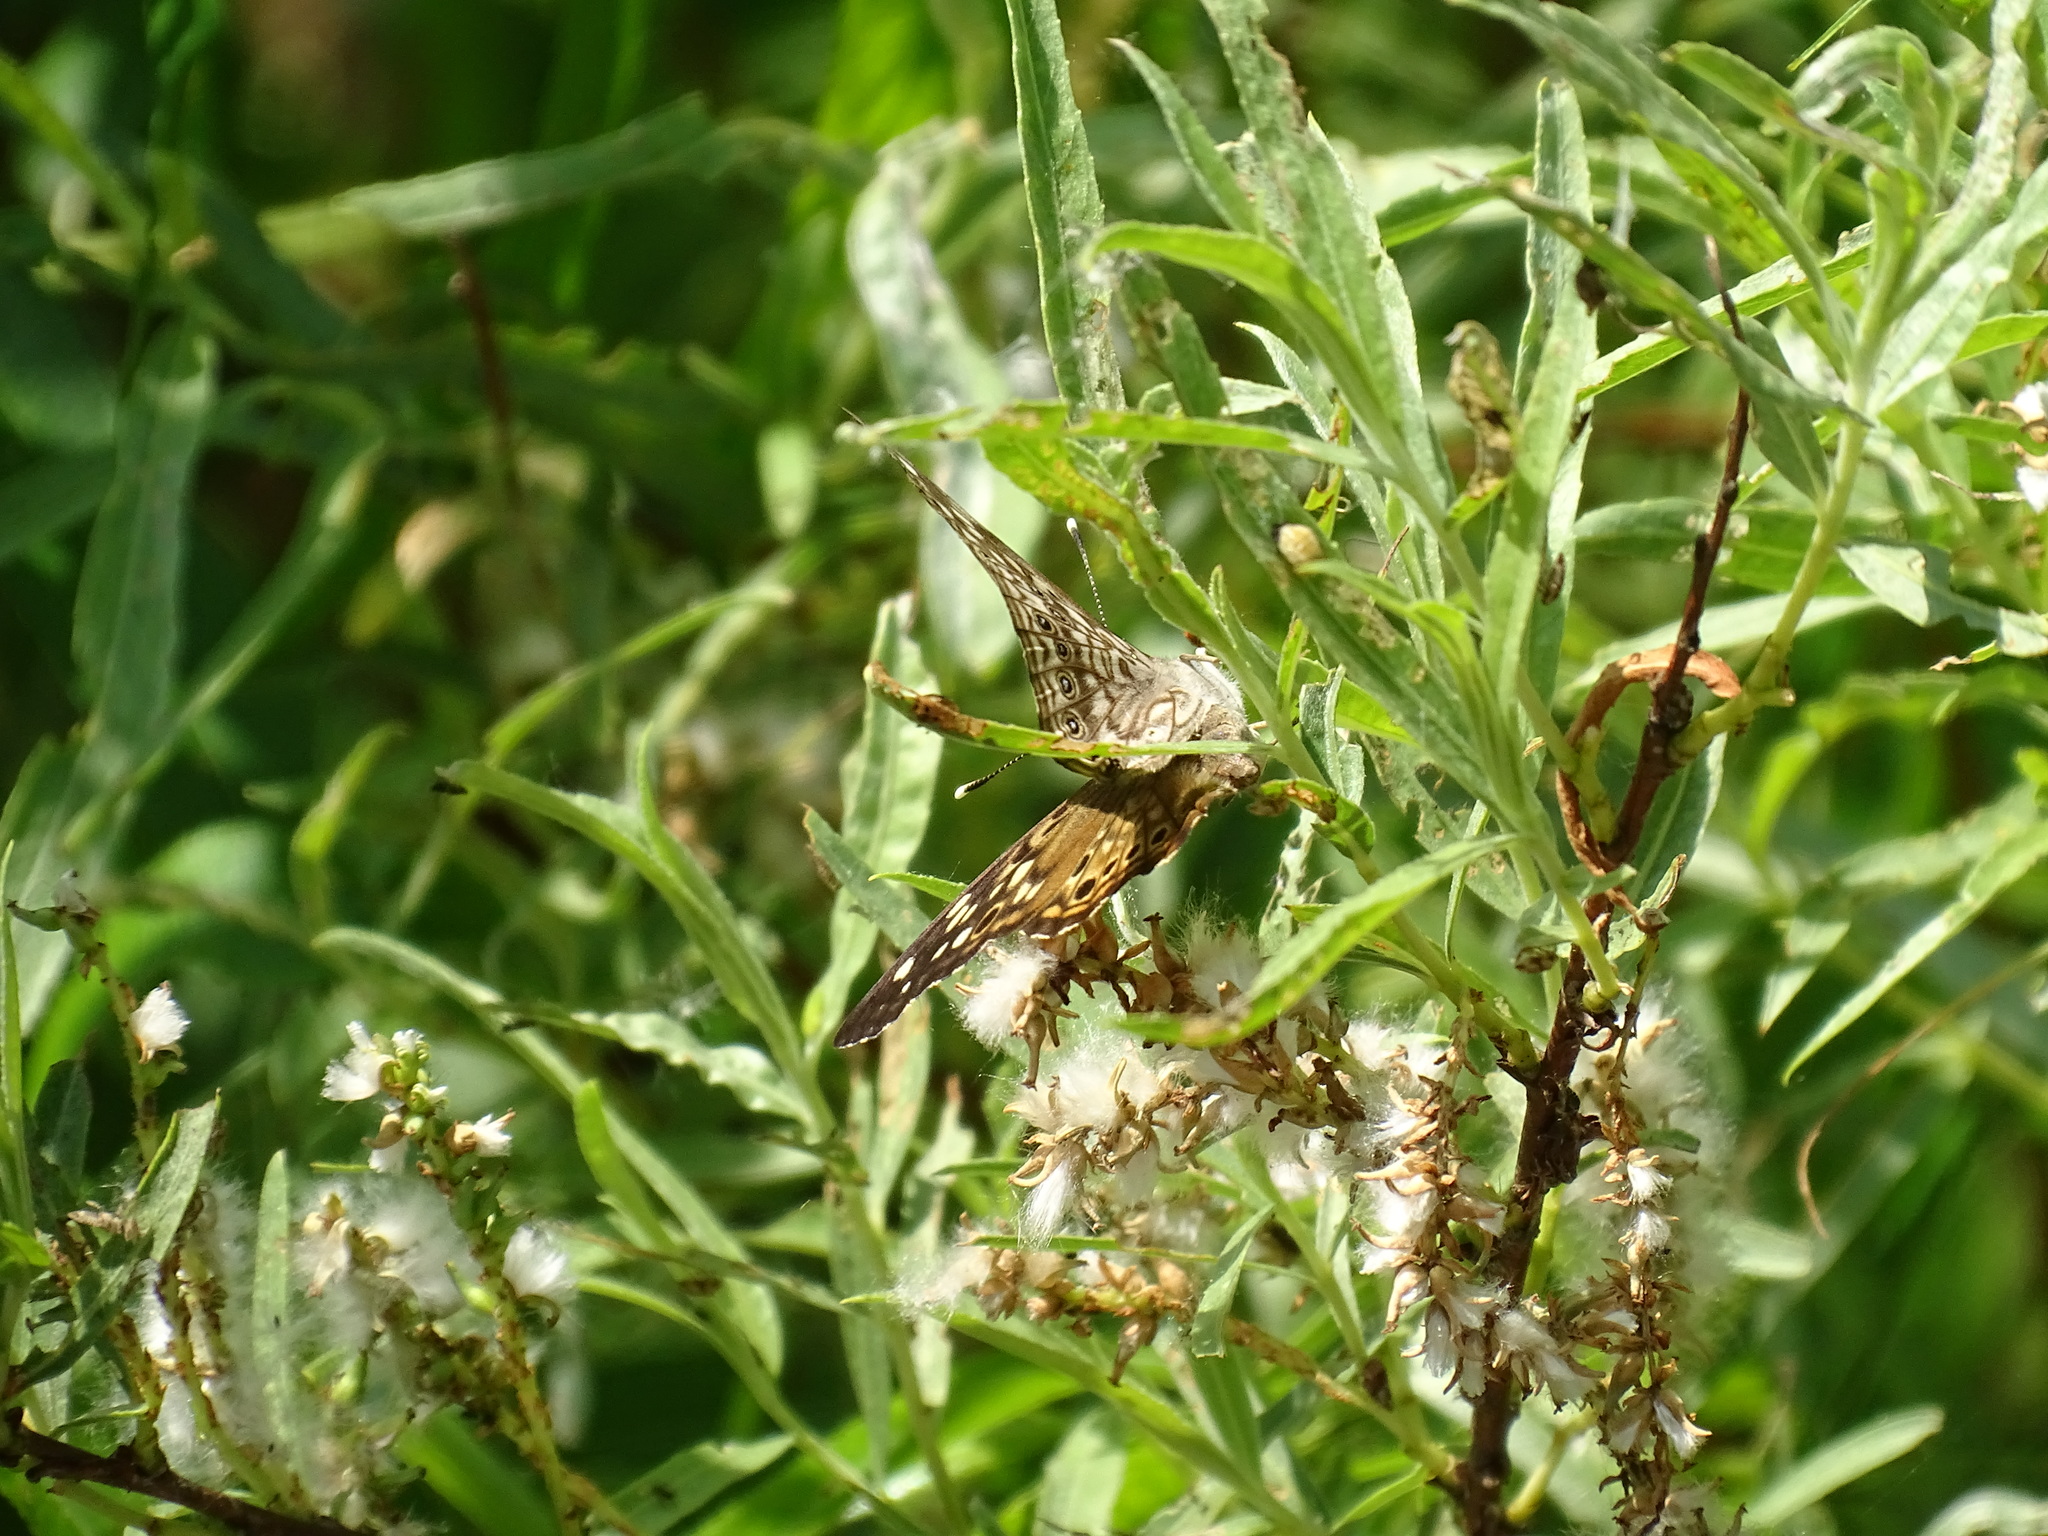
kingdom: Animalia
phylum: Arthropoda
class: Insecta
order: Lepidoptera
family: Nymphalidae
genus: Asterocampa
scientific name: Asterocampa celtis
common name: Hackberry emperor
